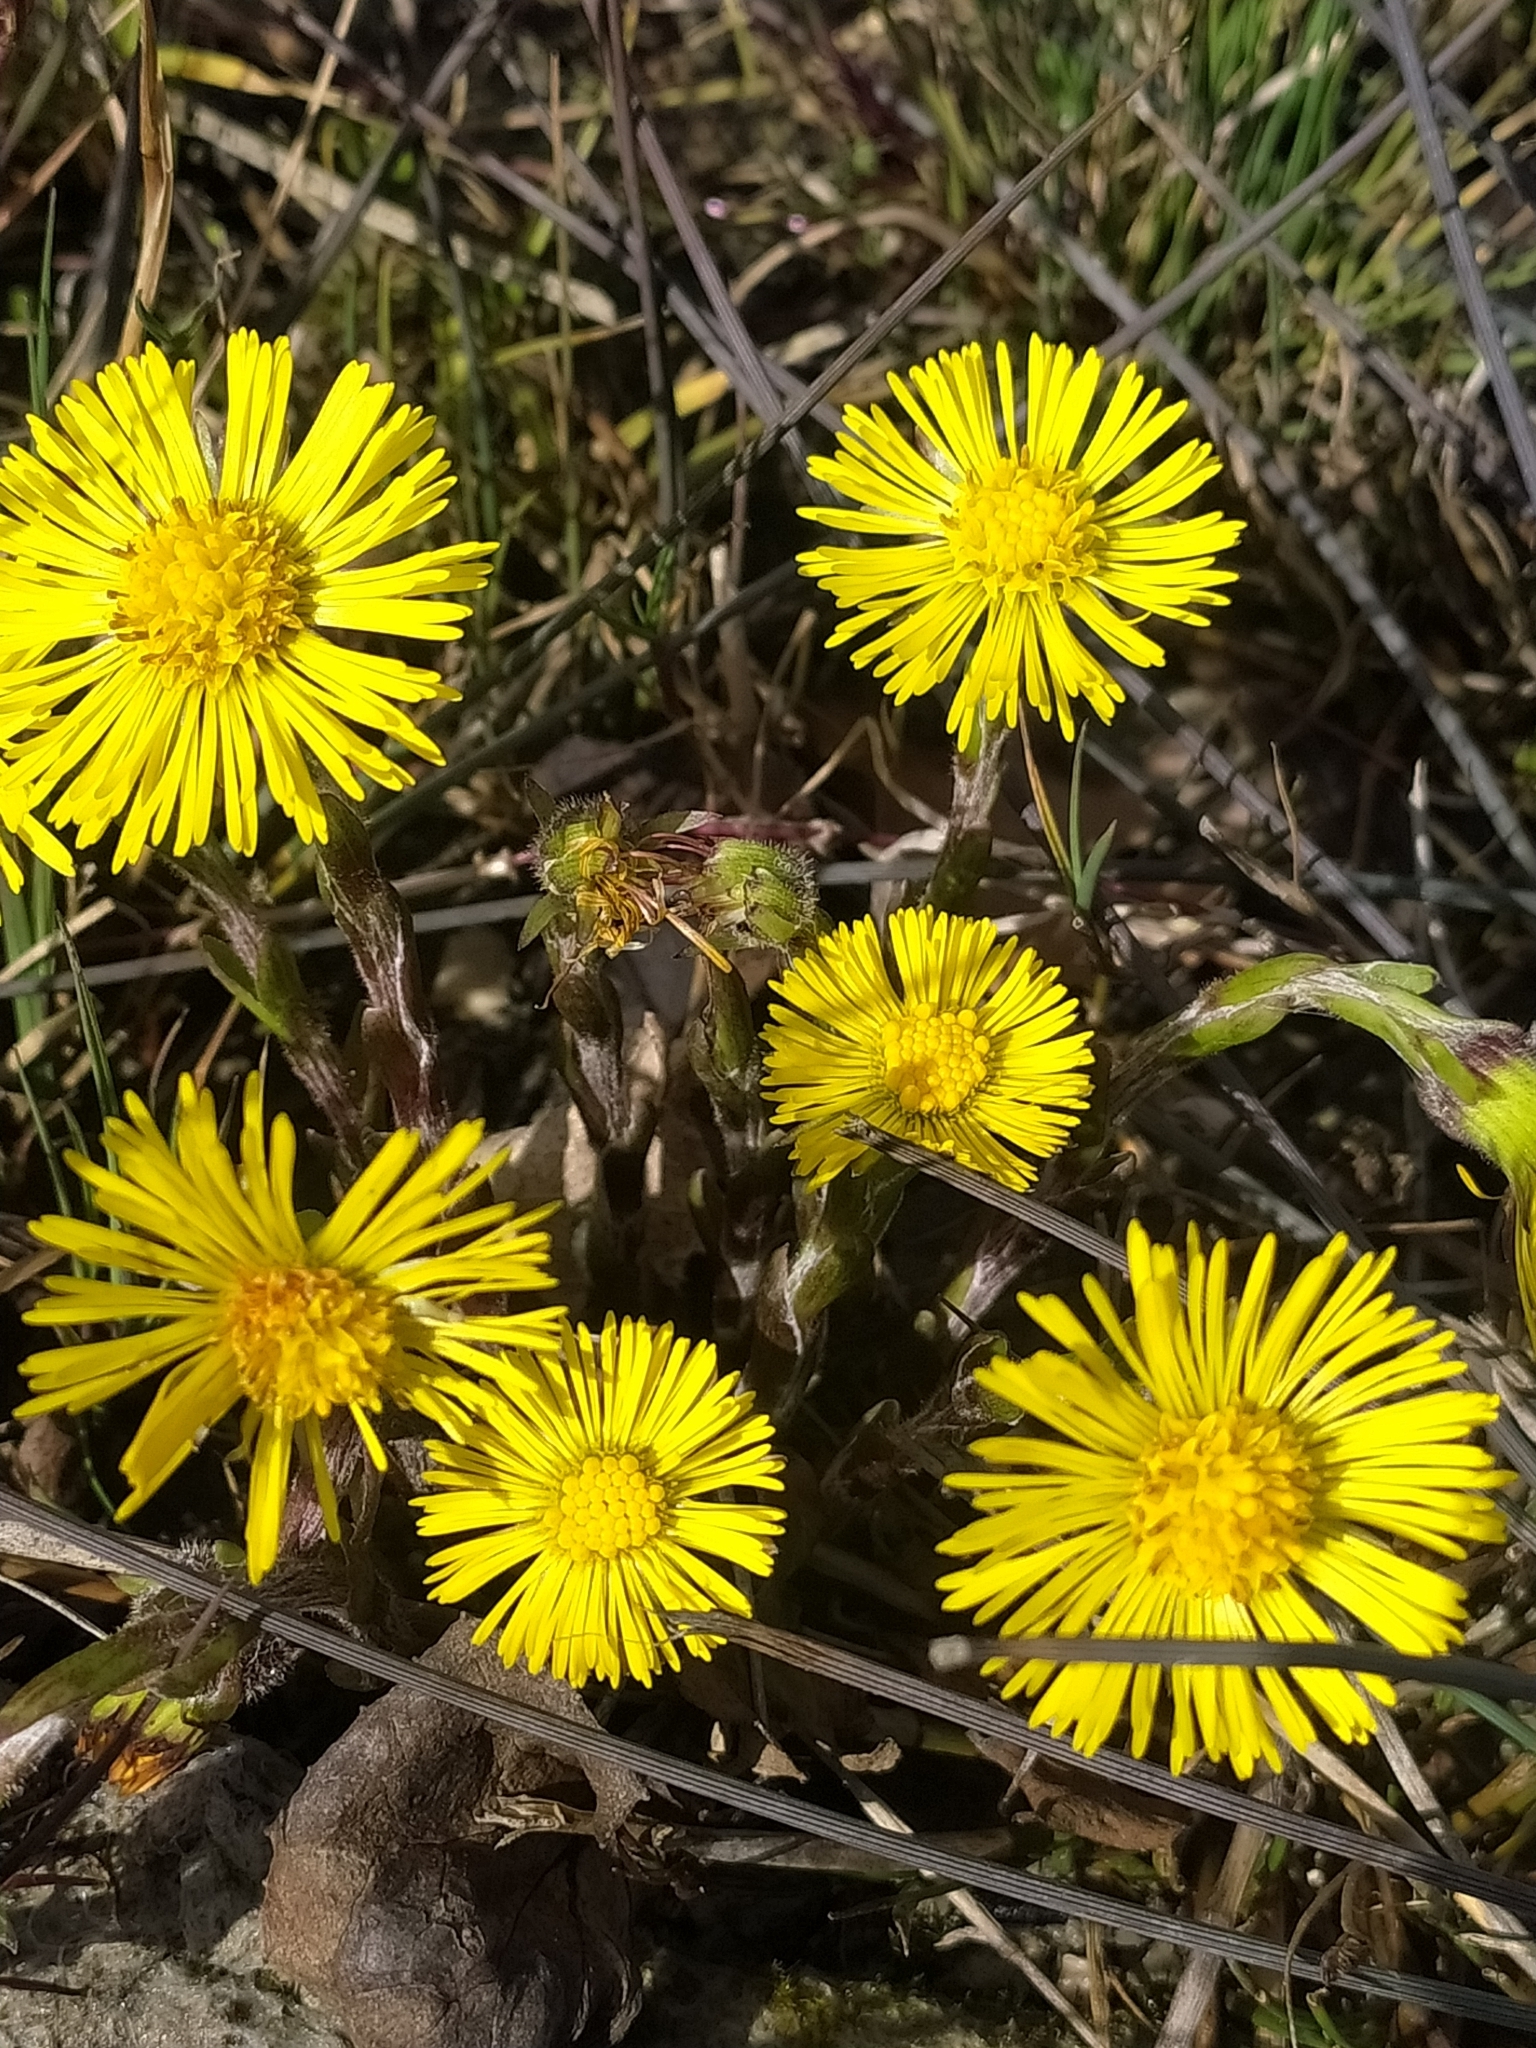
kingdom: Plantae
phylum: Tracheophyta
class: Magnoliopsida
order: Asterales
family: Asteraceae
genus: Tussilago
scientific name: Tussilago farfara
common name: Coltsfoot
